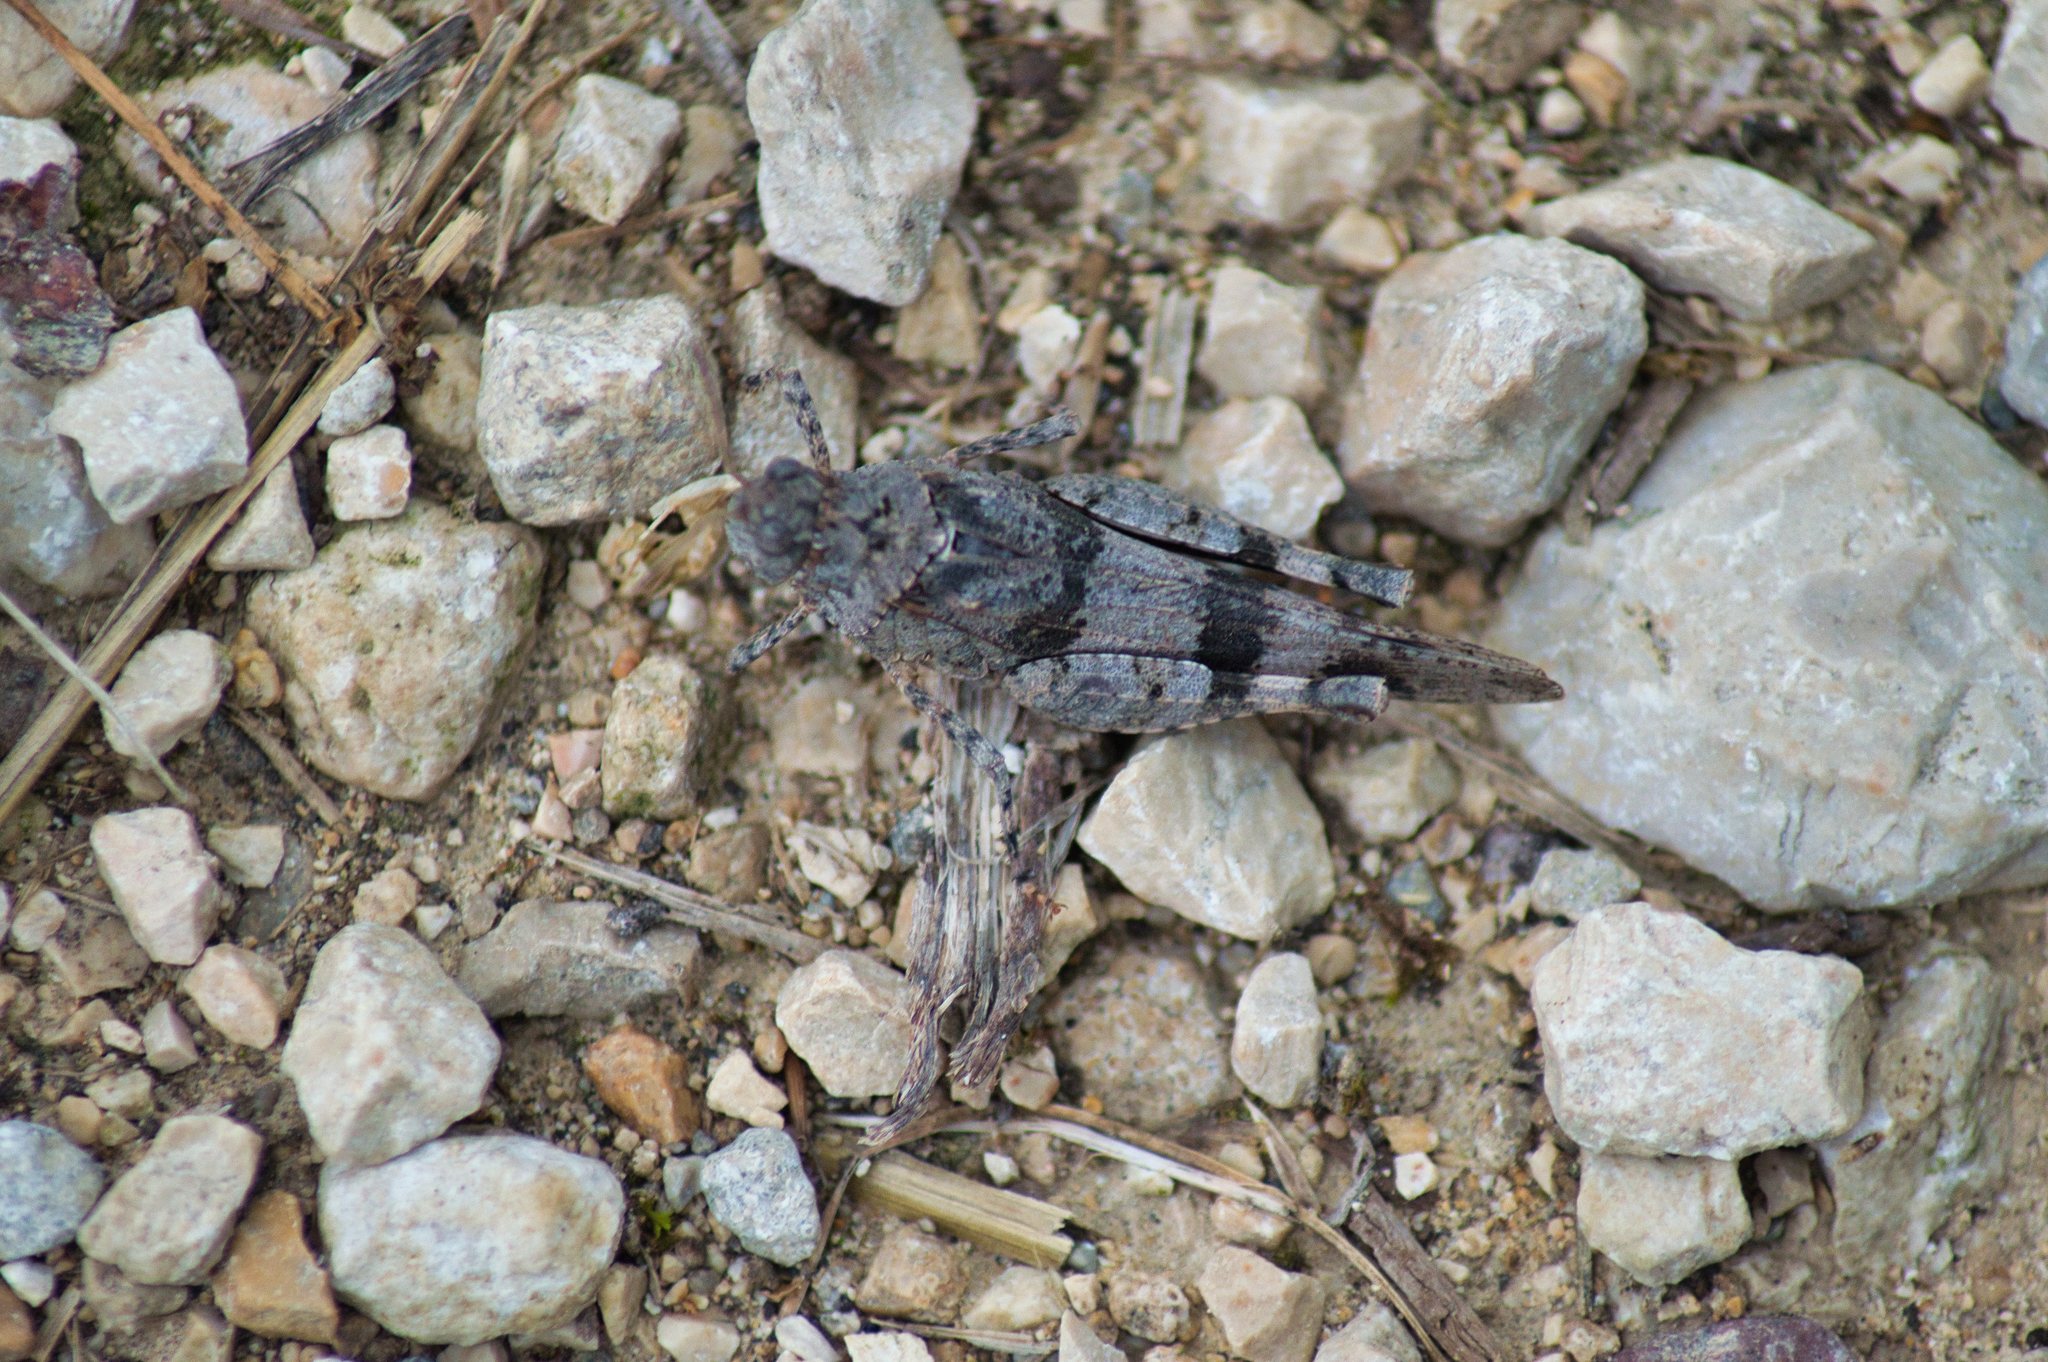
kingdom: Animalia
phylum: Arthropoda
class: Insecta
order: Orthoptera
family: Acrididae
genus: Oedipoda
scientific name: Oedipoda caerulescens
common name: Blue-winged grasshopper
